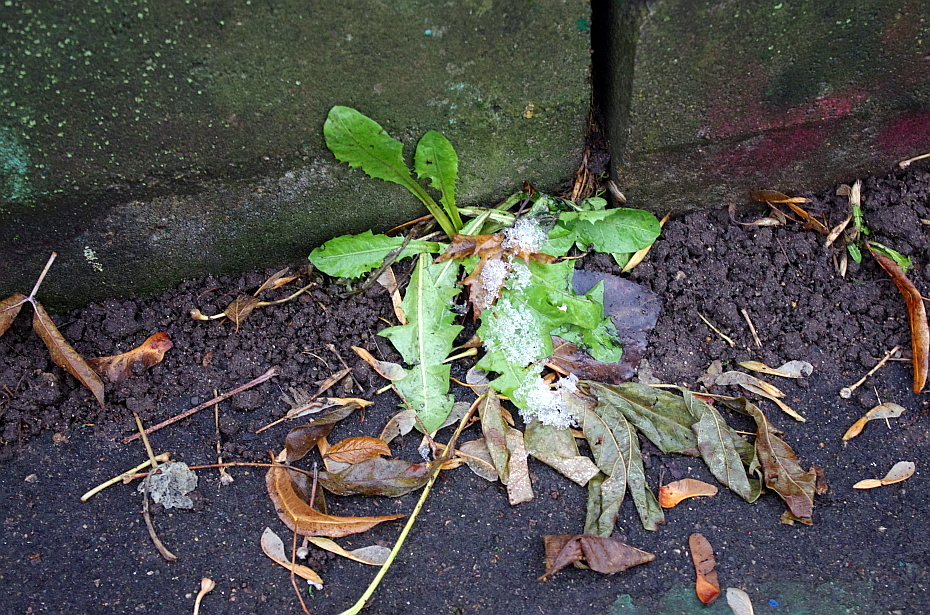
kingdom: Plantae
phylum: Tracheophyta
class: Magnoliopsida
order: Asterales
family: Asteraceae
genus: Taraxacum
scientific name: Taraxacum officinale
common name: Common dandelion
